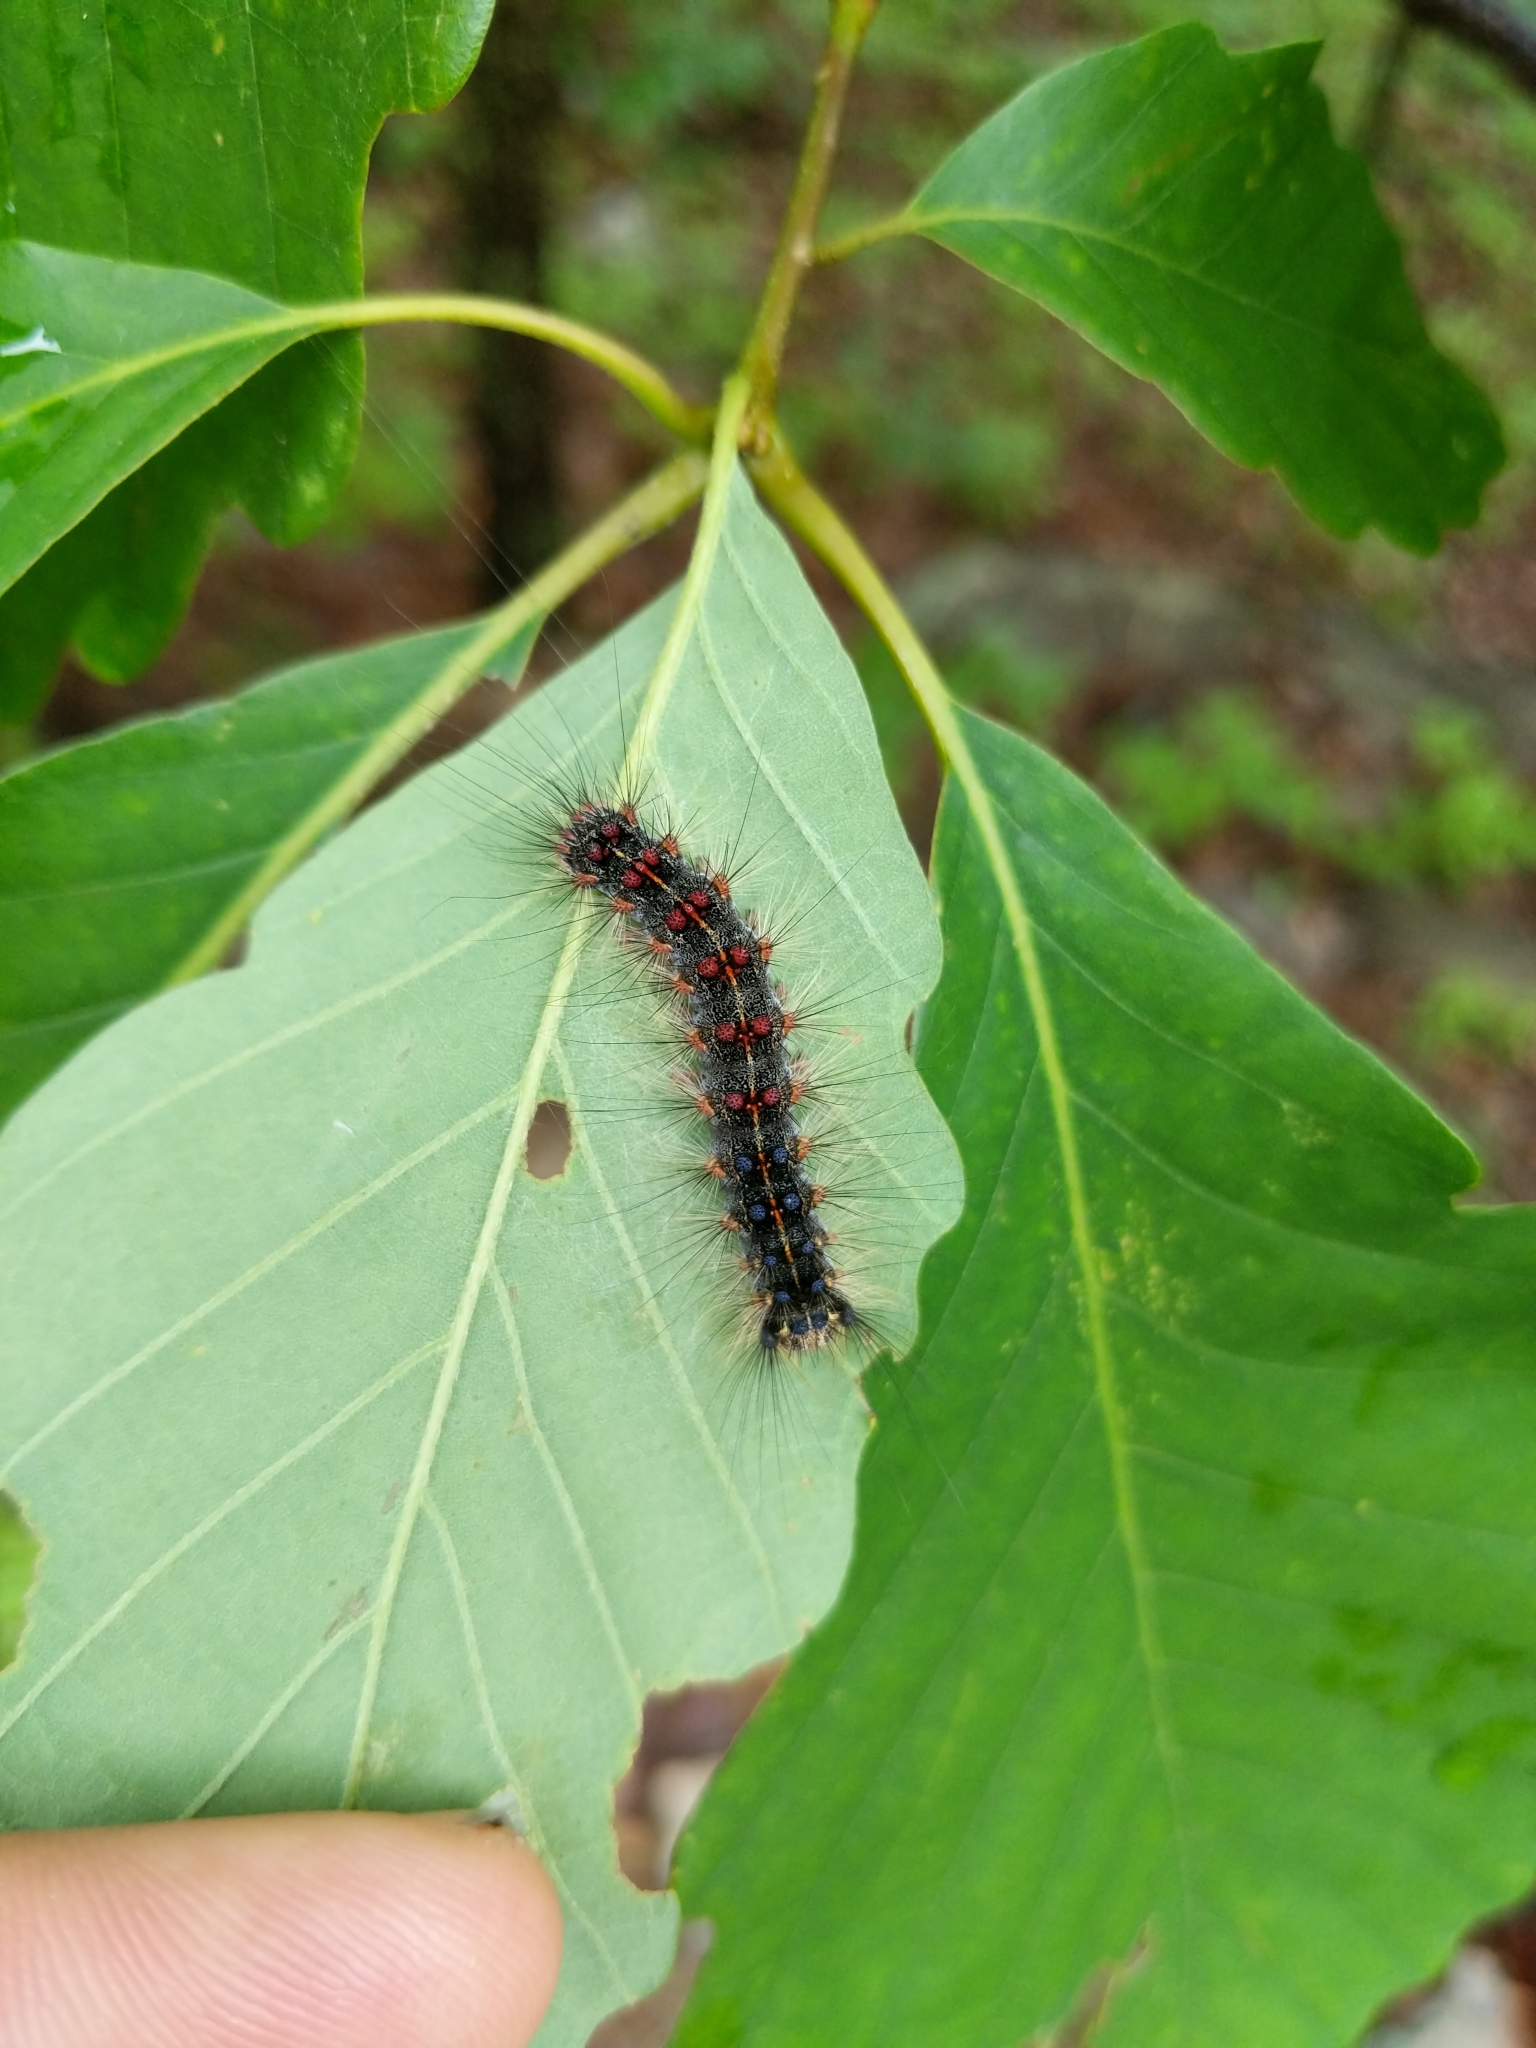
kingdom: Animalia
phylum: Arthropoda
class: Insecta
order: Lepidoptera
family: Erebidae
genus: Lymantria
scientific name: Lymantria dispar
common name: Gypsy moth
